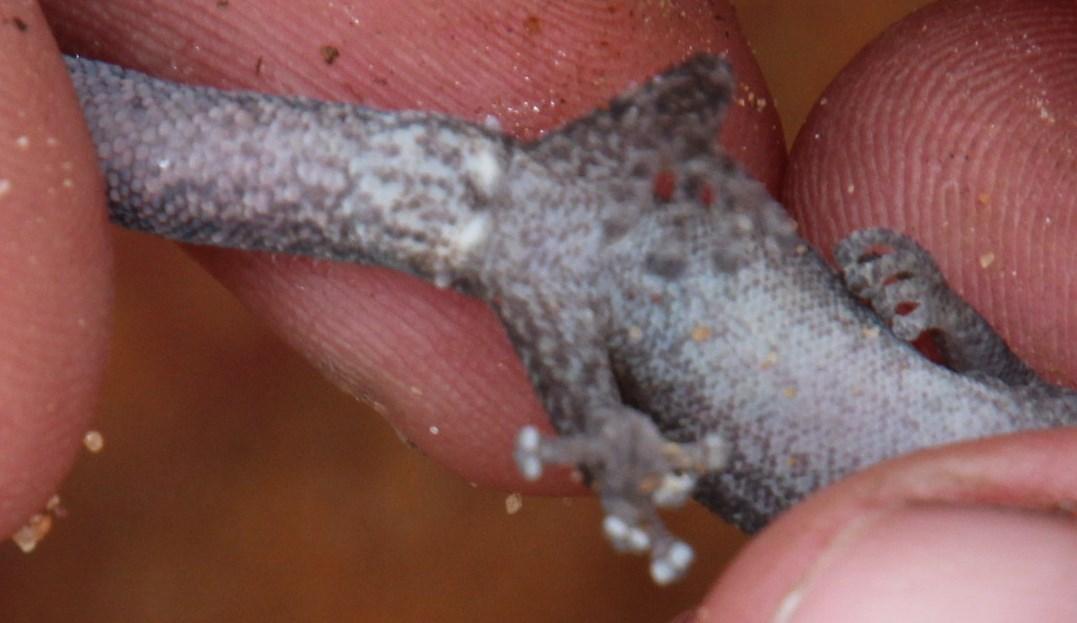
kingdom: Animalia
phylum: Chordata
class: Squamata
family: Gekkonidae
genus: Afrogecko
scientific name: Afrogecko porphyreus
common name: Marbled leaf-toed gecko
